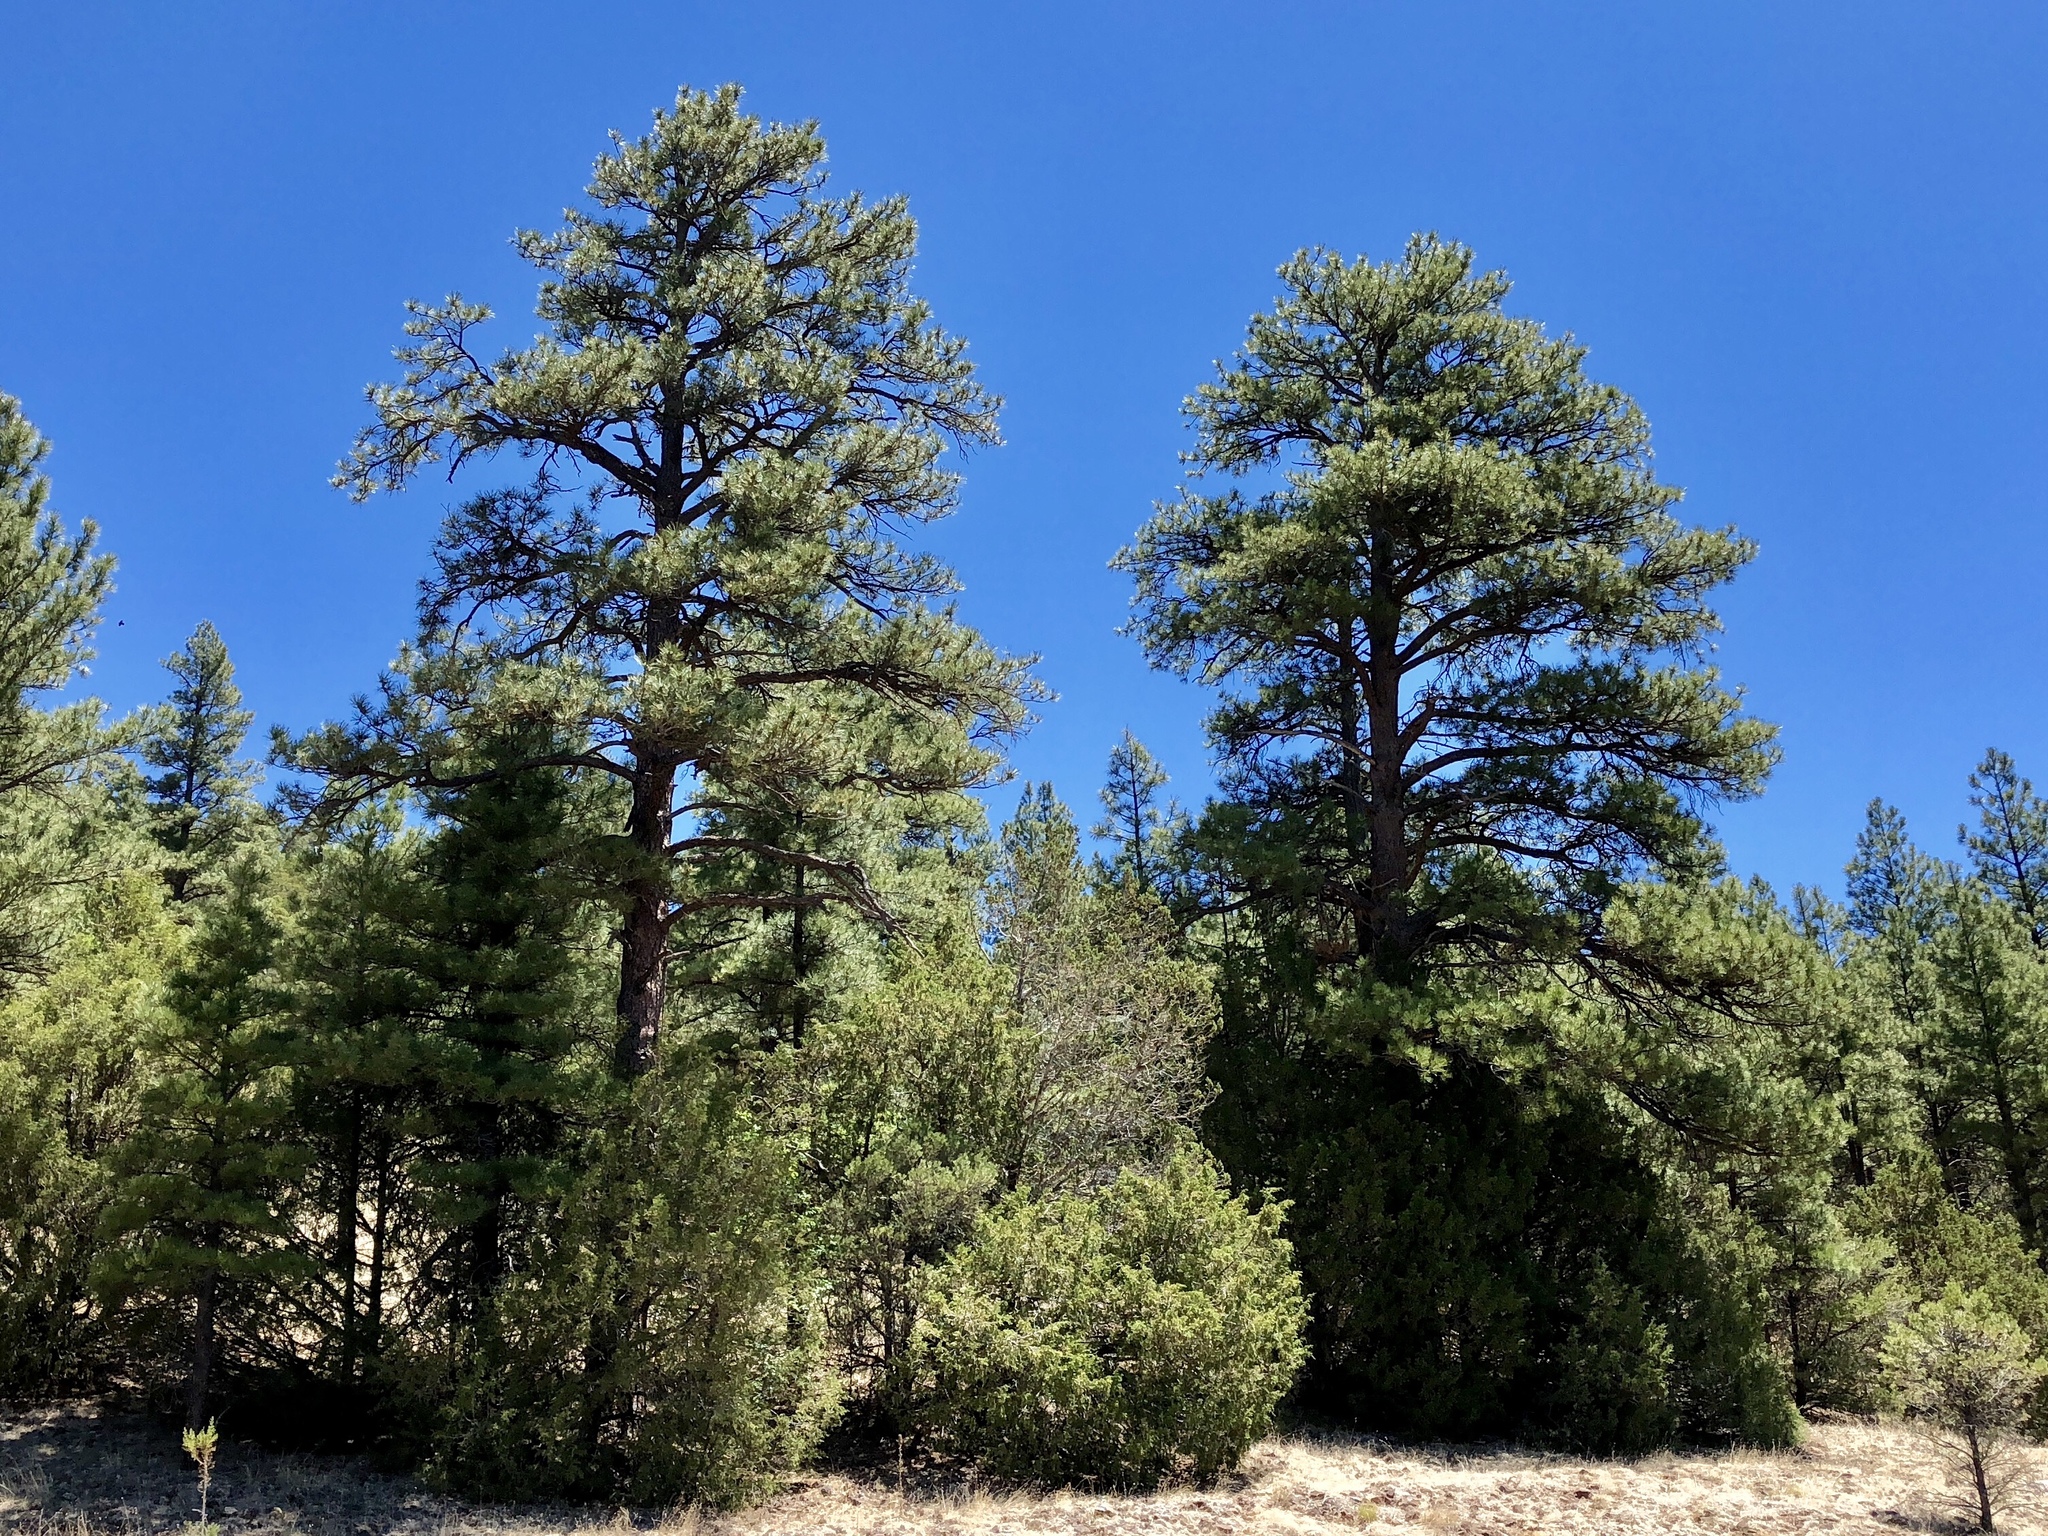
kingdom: Plantae
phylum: Tracheophyta
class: Pinopsida
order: Pinales
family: Pinaceae
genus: Pinus
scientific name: Pinus ponderosa
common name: Western yellow-pine
